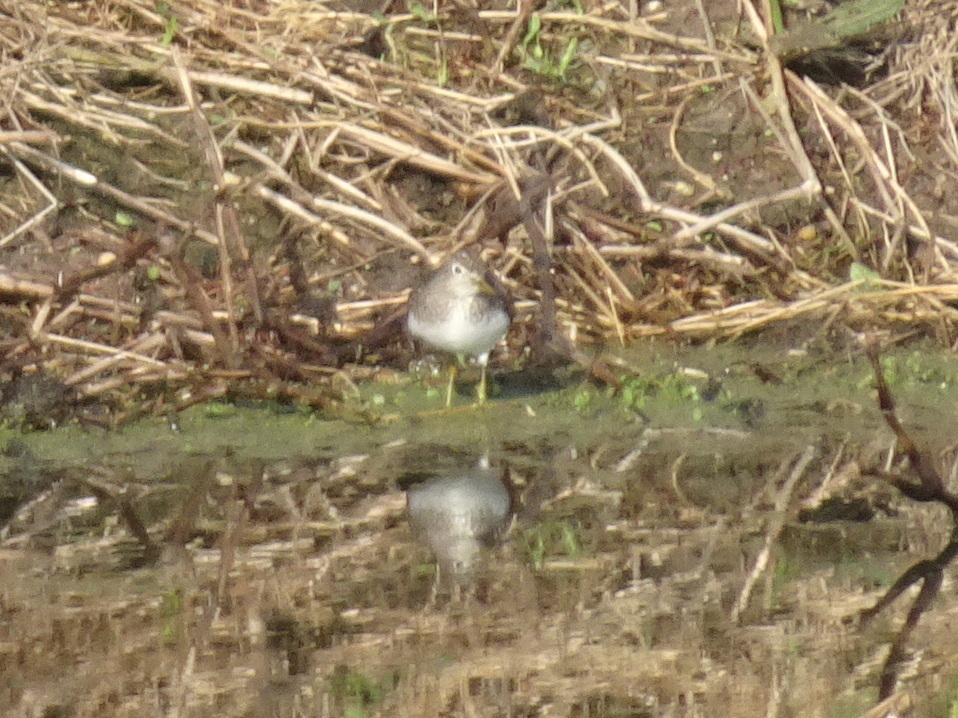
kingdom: Animalia
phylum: Chordata
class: Aves
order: Charadriiformes
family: Scolopacidae
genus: Tringa
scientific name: Tringa solitaria
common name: Solitary sandpiper
